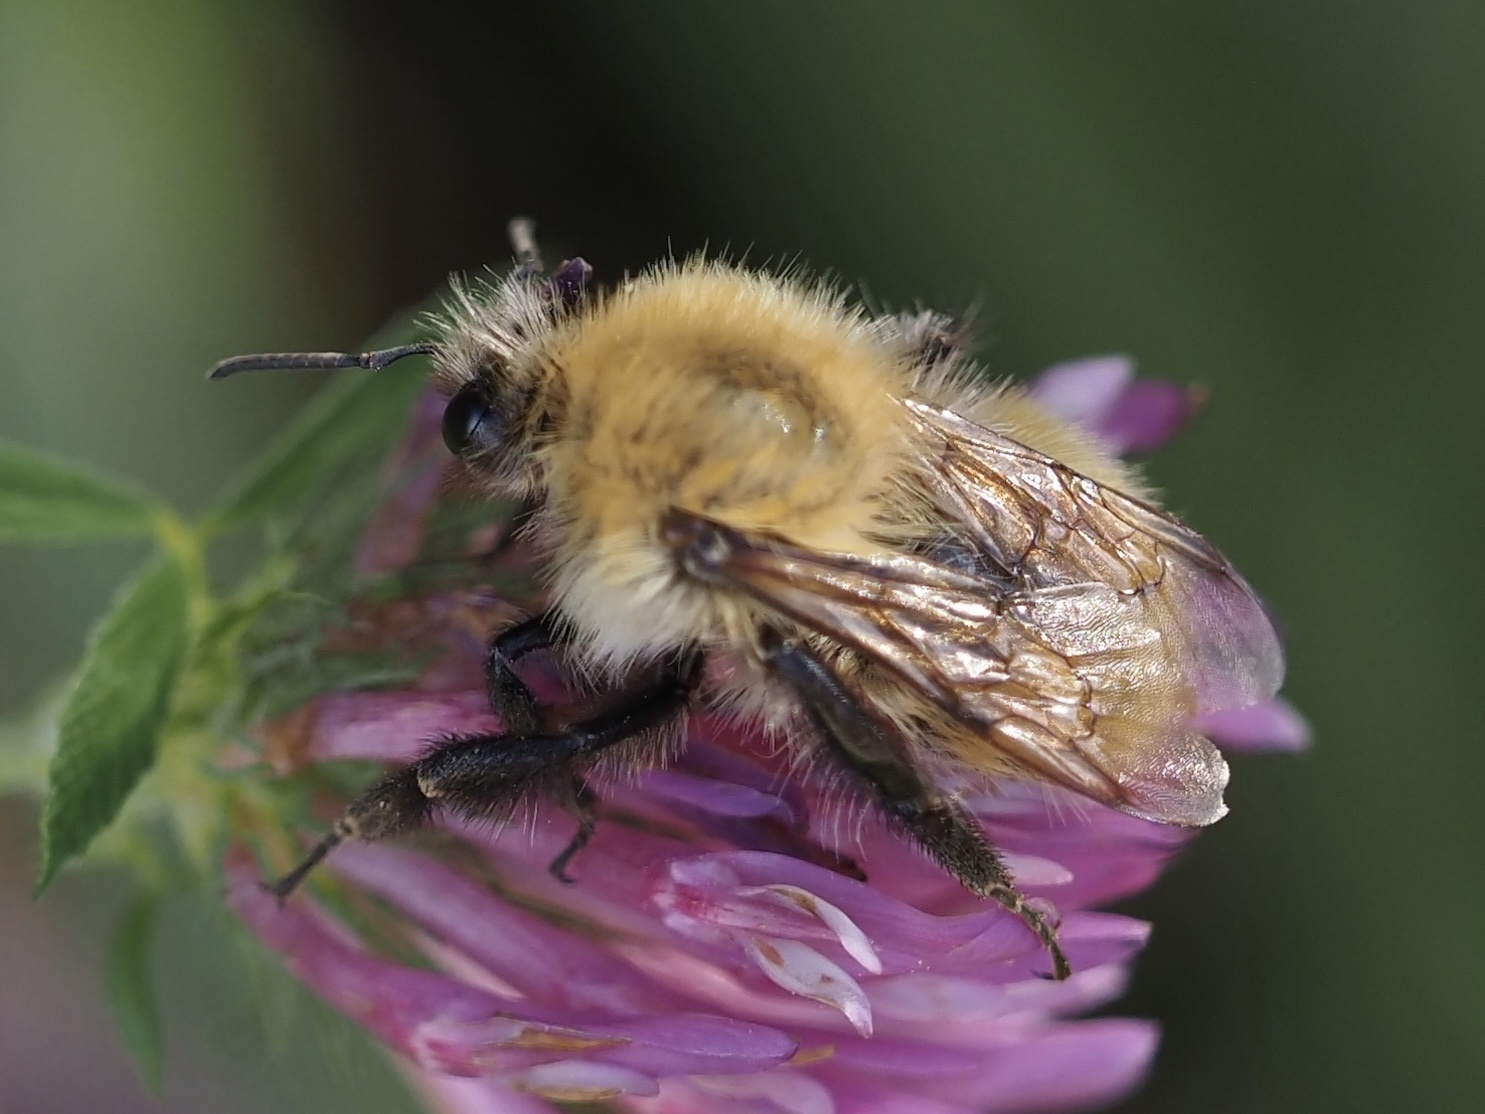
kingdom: Animalia
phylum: Arthropoda
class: Insecta
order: Hymenoptera
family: Apidae
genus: Bombus
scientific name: Bombus pascuorum
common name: Common carder bee
